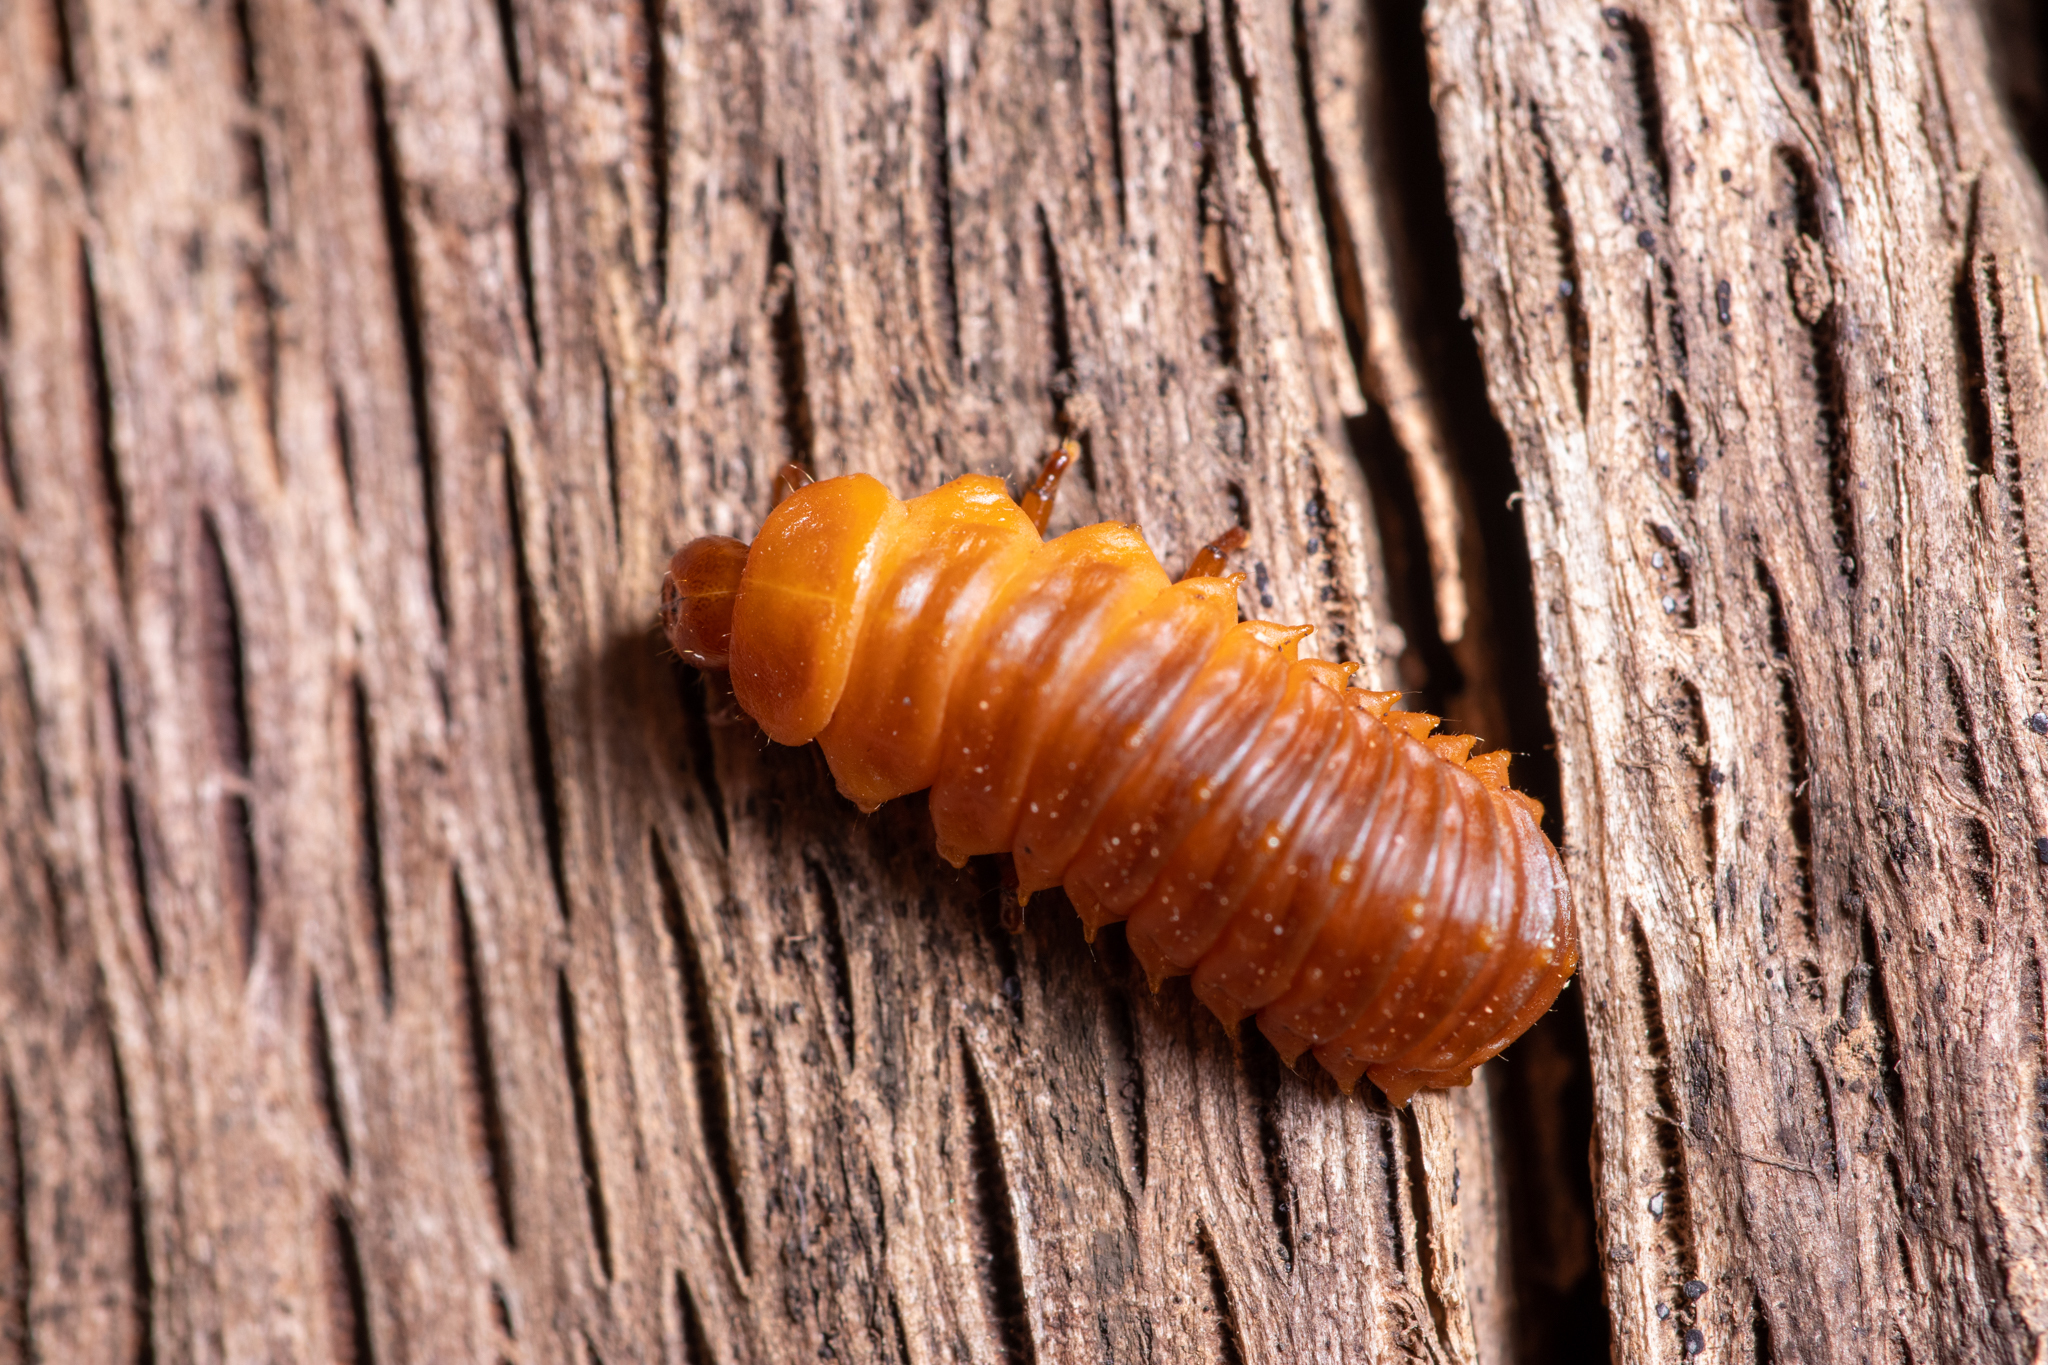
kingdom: Animalia
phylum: Arthropoda
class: Insecta
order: Coleoptera
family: Chrysomelidae
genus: Monocesta
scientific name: Monocesta coryli
